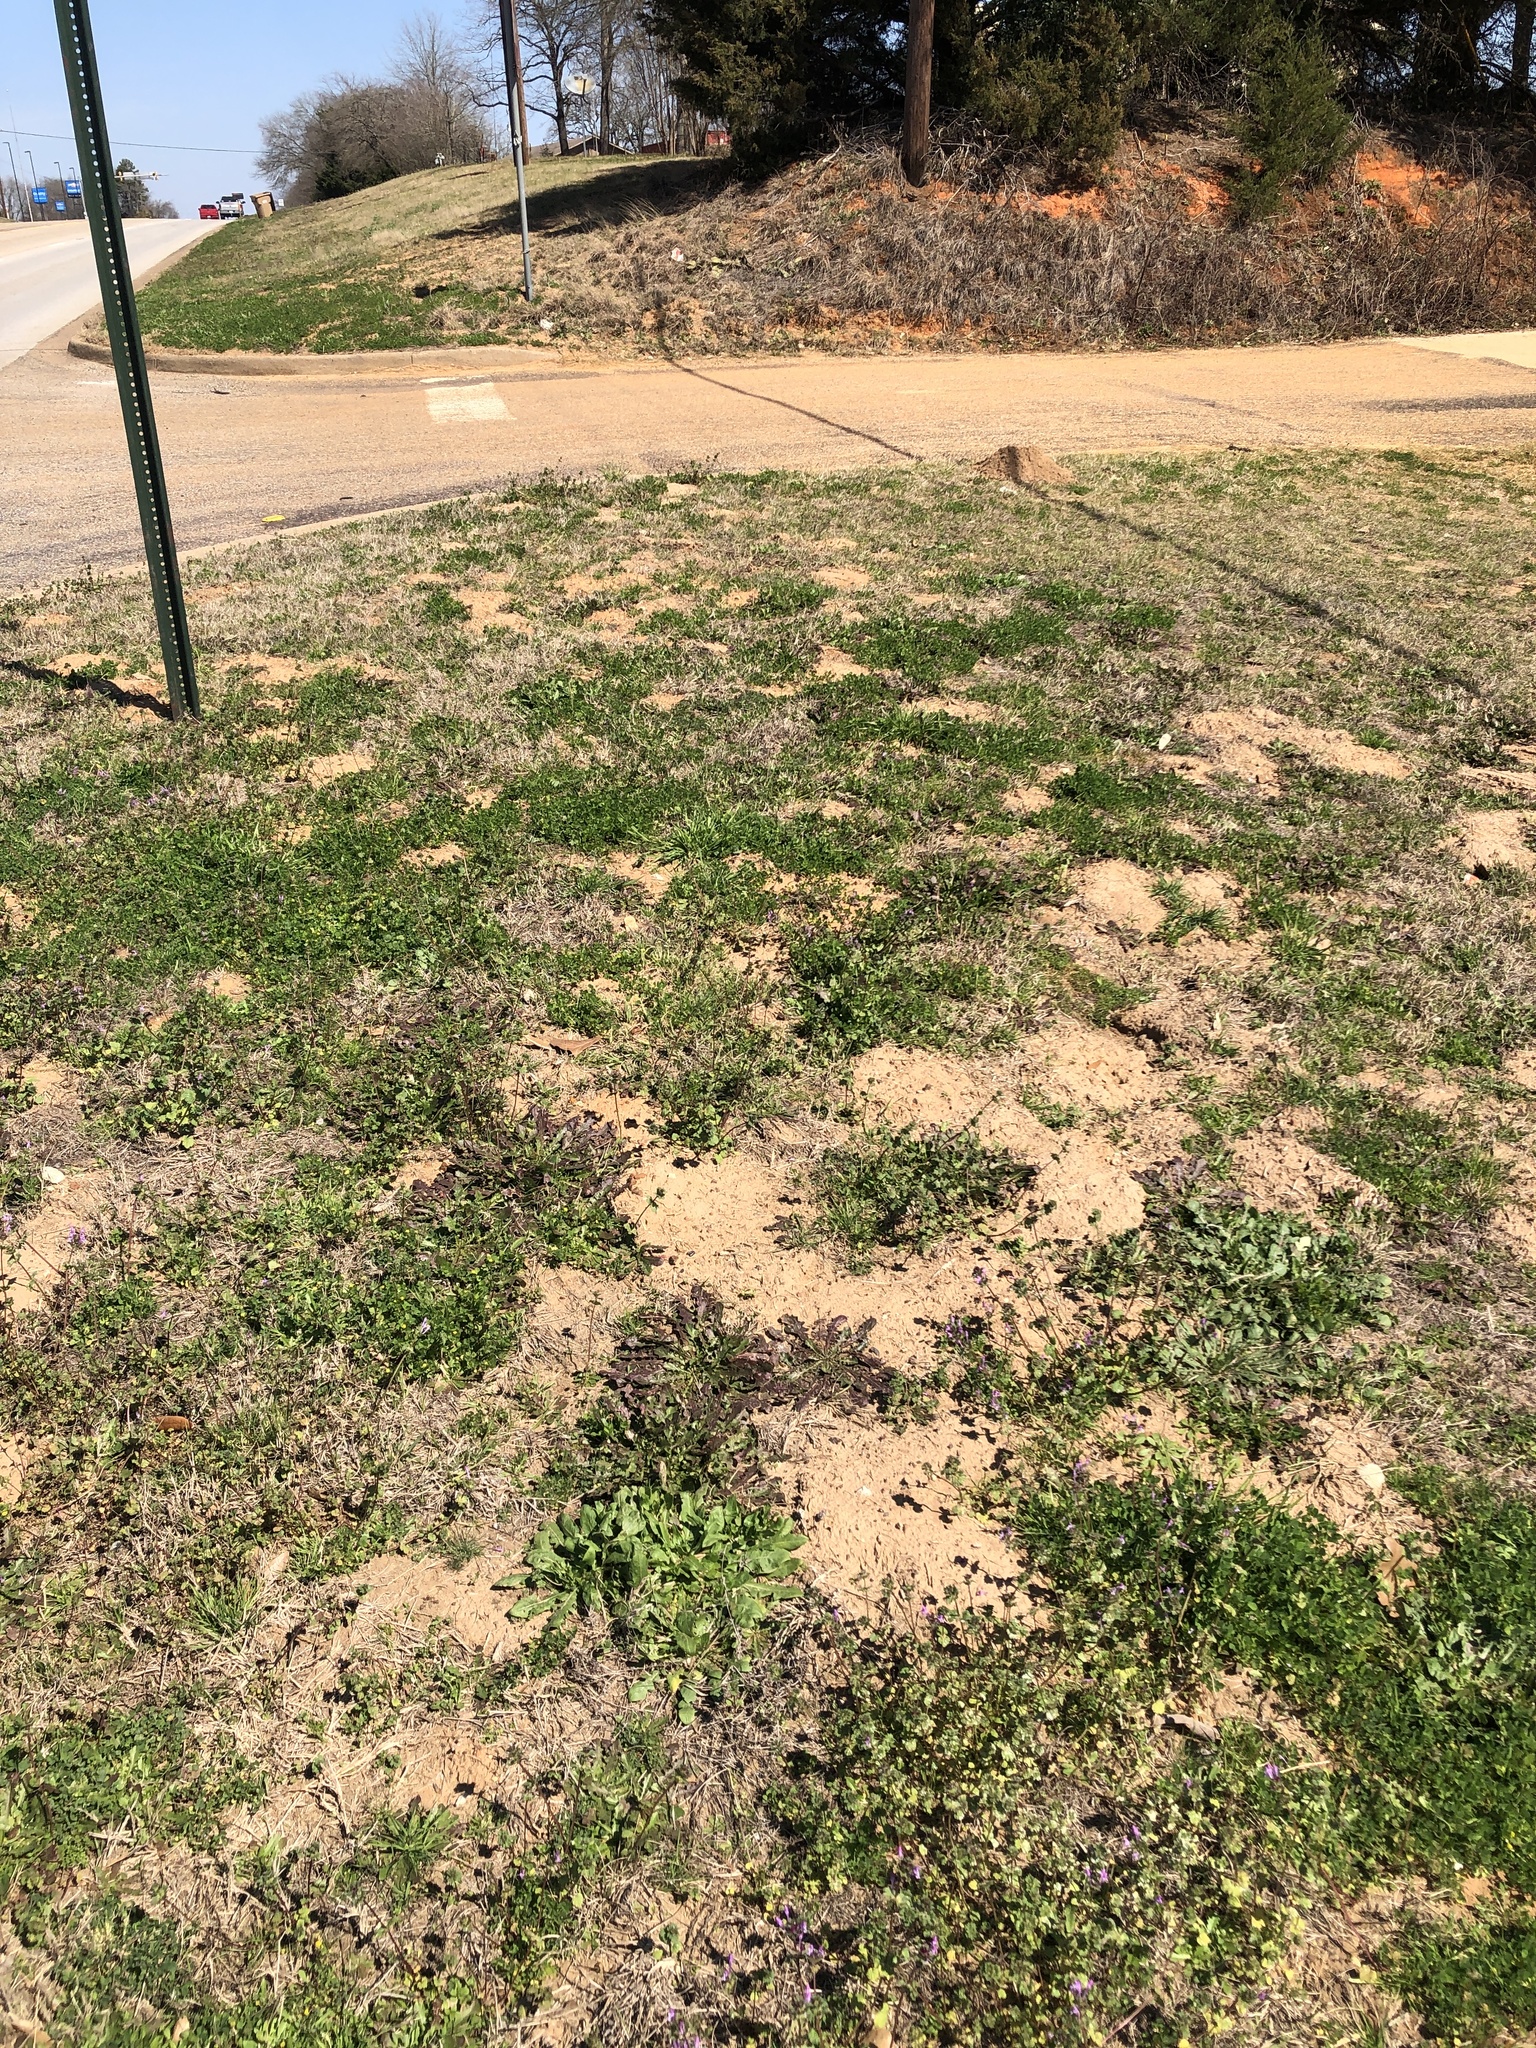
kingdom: Animalia
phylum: Chordata
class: Mammalia
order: Rodentia
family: Geomyidae
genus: Geomys
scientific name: Geomys breviceps
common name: Baird's pocket gopher
